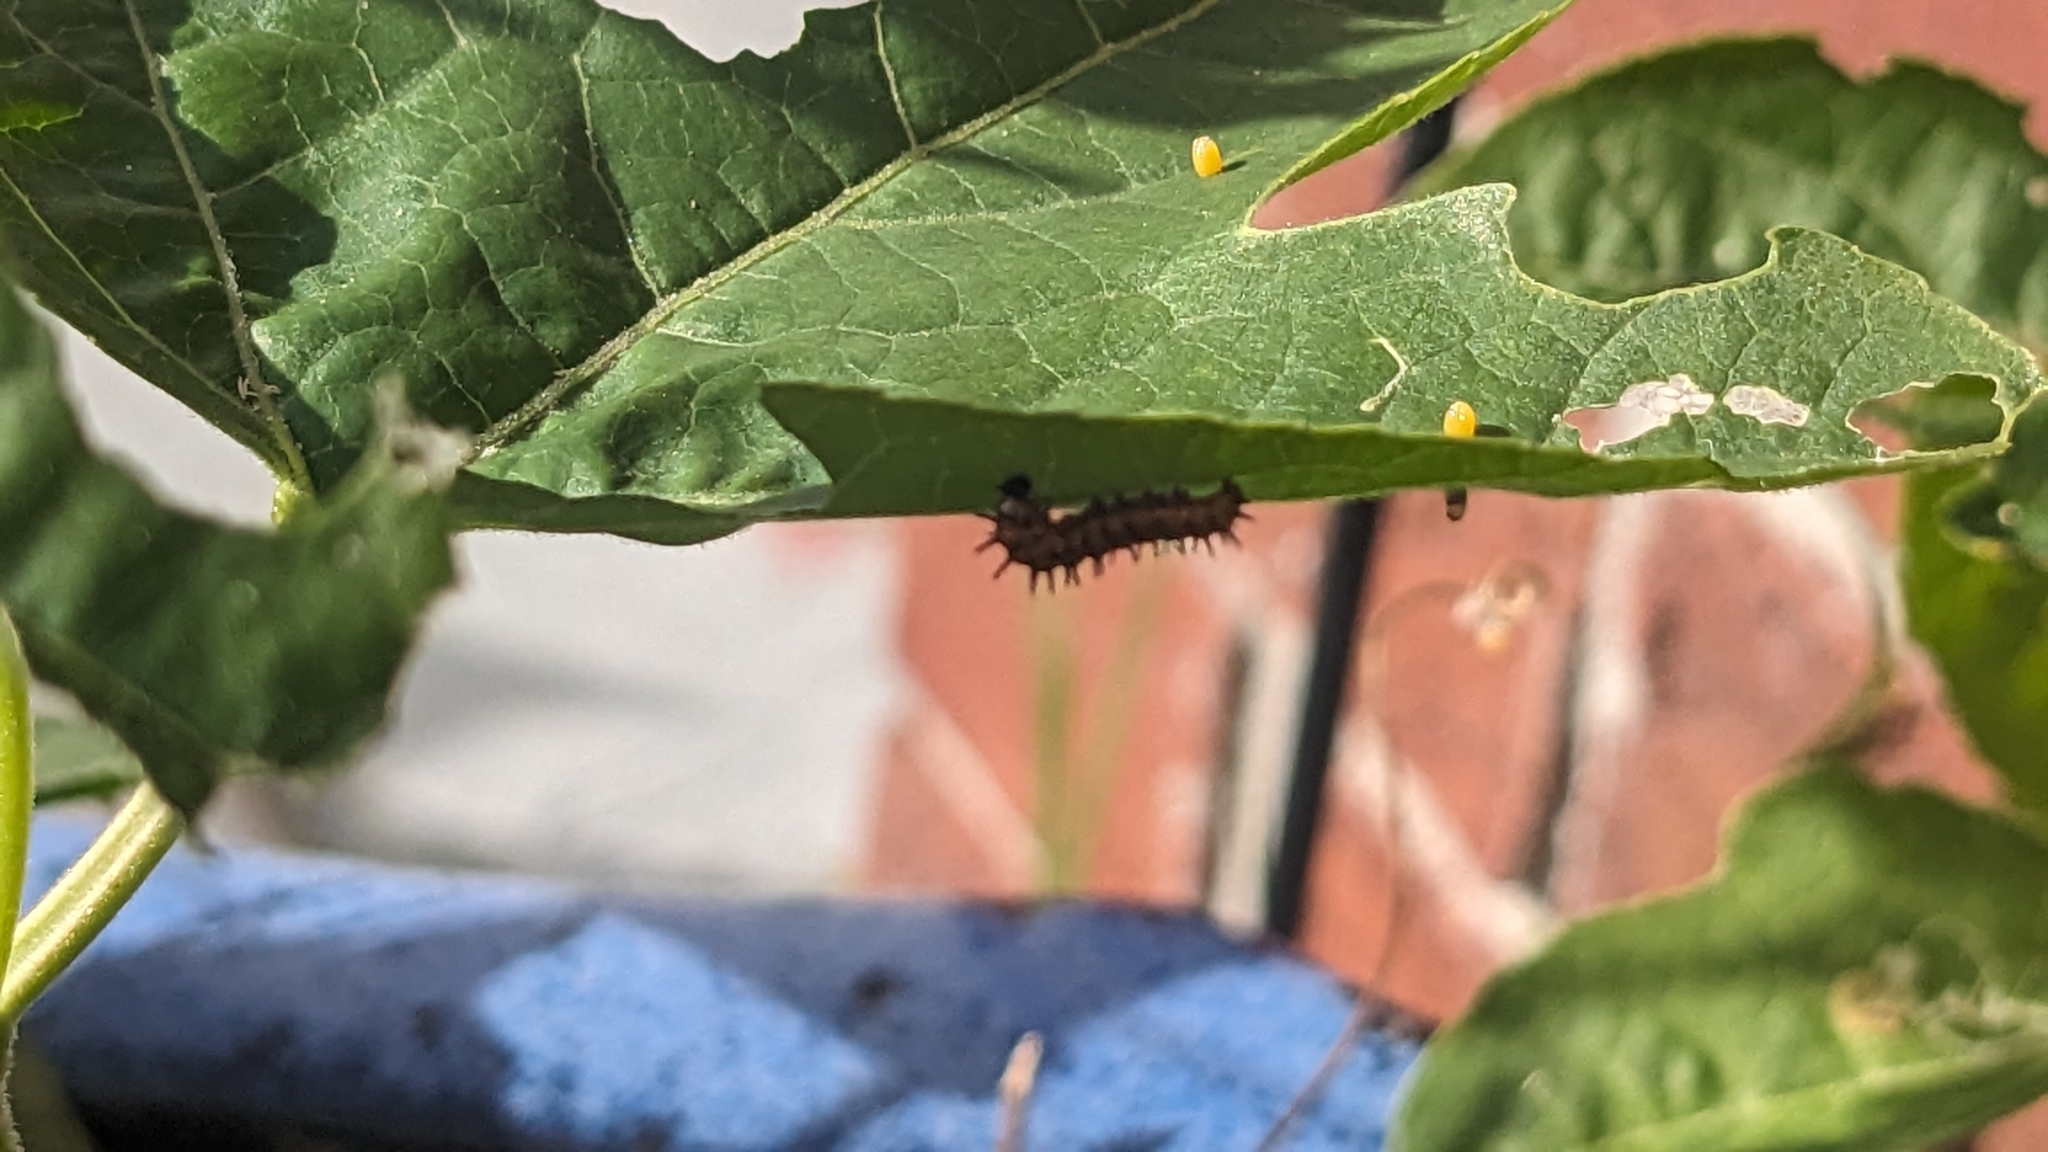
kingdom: Animalia
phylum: Arthropoda
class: Insecta
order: Lepidoptera
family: Nymphalidae
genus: Dione
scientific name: Dione vanillae
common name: Gulf fritillary
